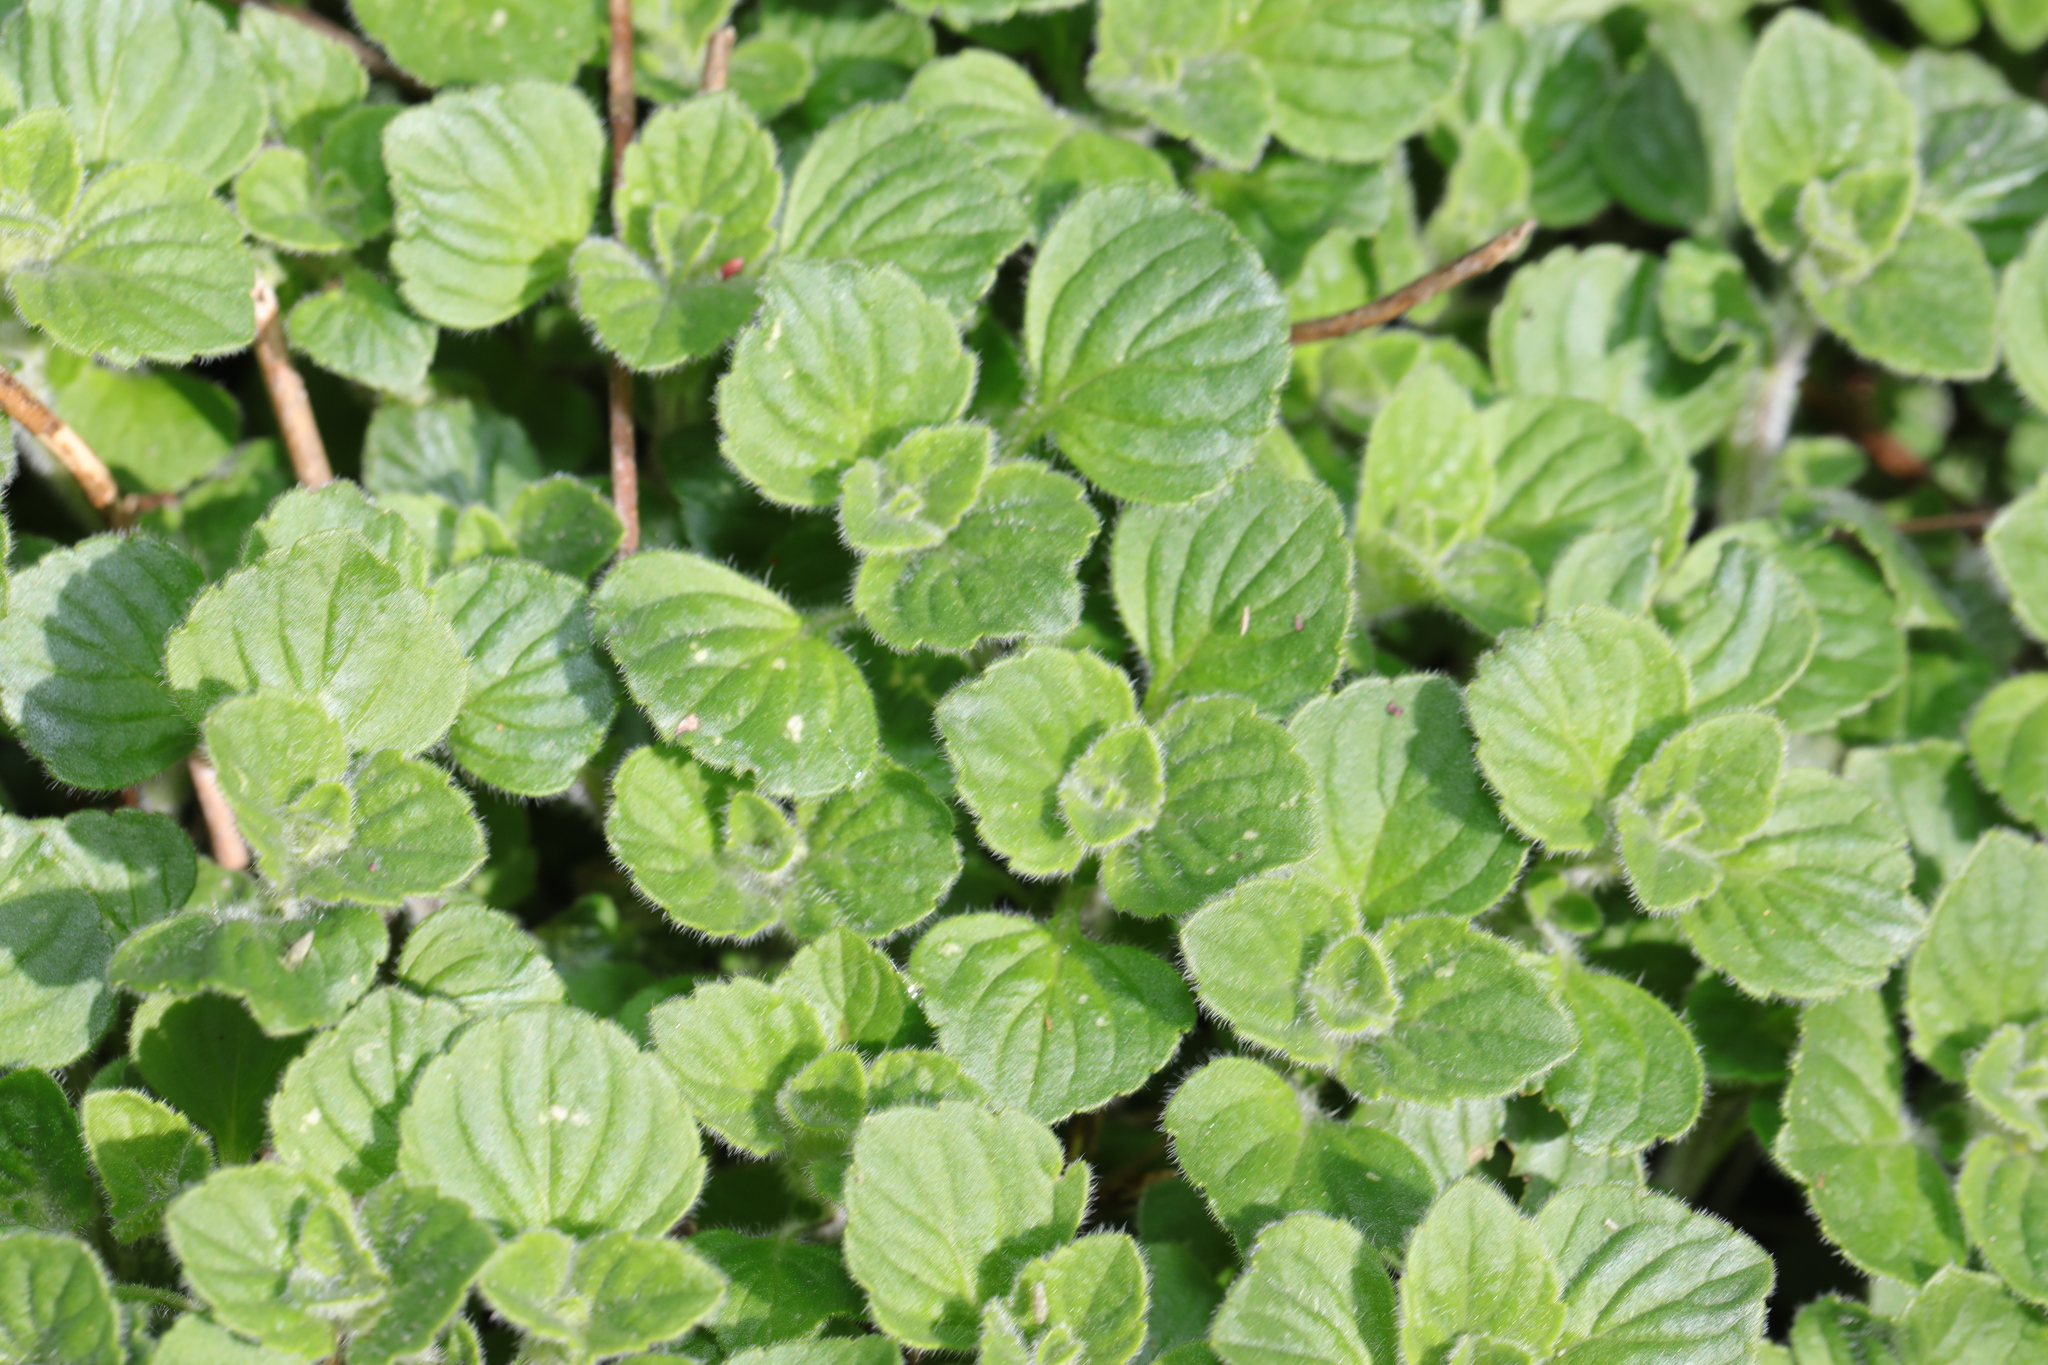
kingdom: Plantae
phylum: Tracheophyta
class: Magnoliopsida
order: Lamiales
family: Lamiaceae
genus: Origanum
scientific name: Origanum vulgare
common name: Wild marjoram
